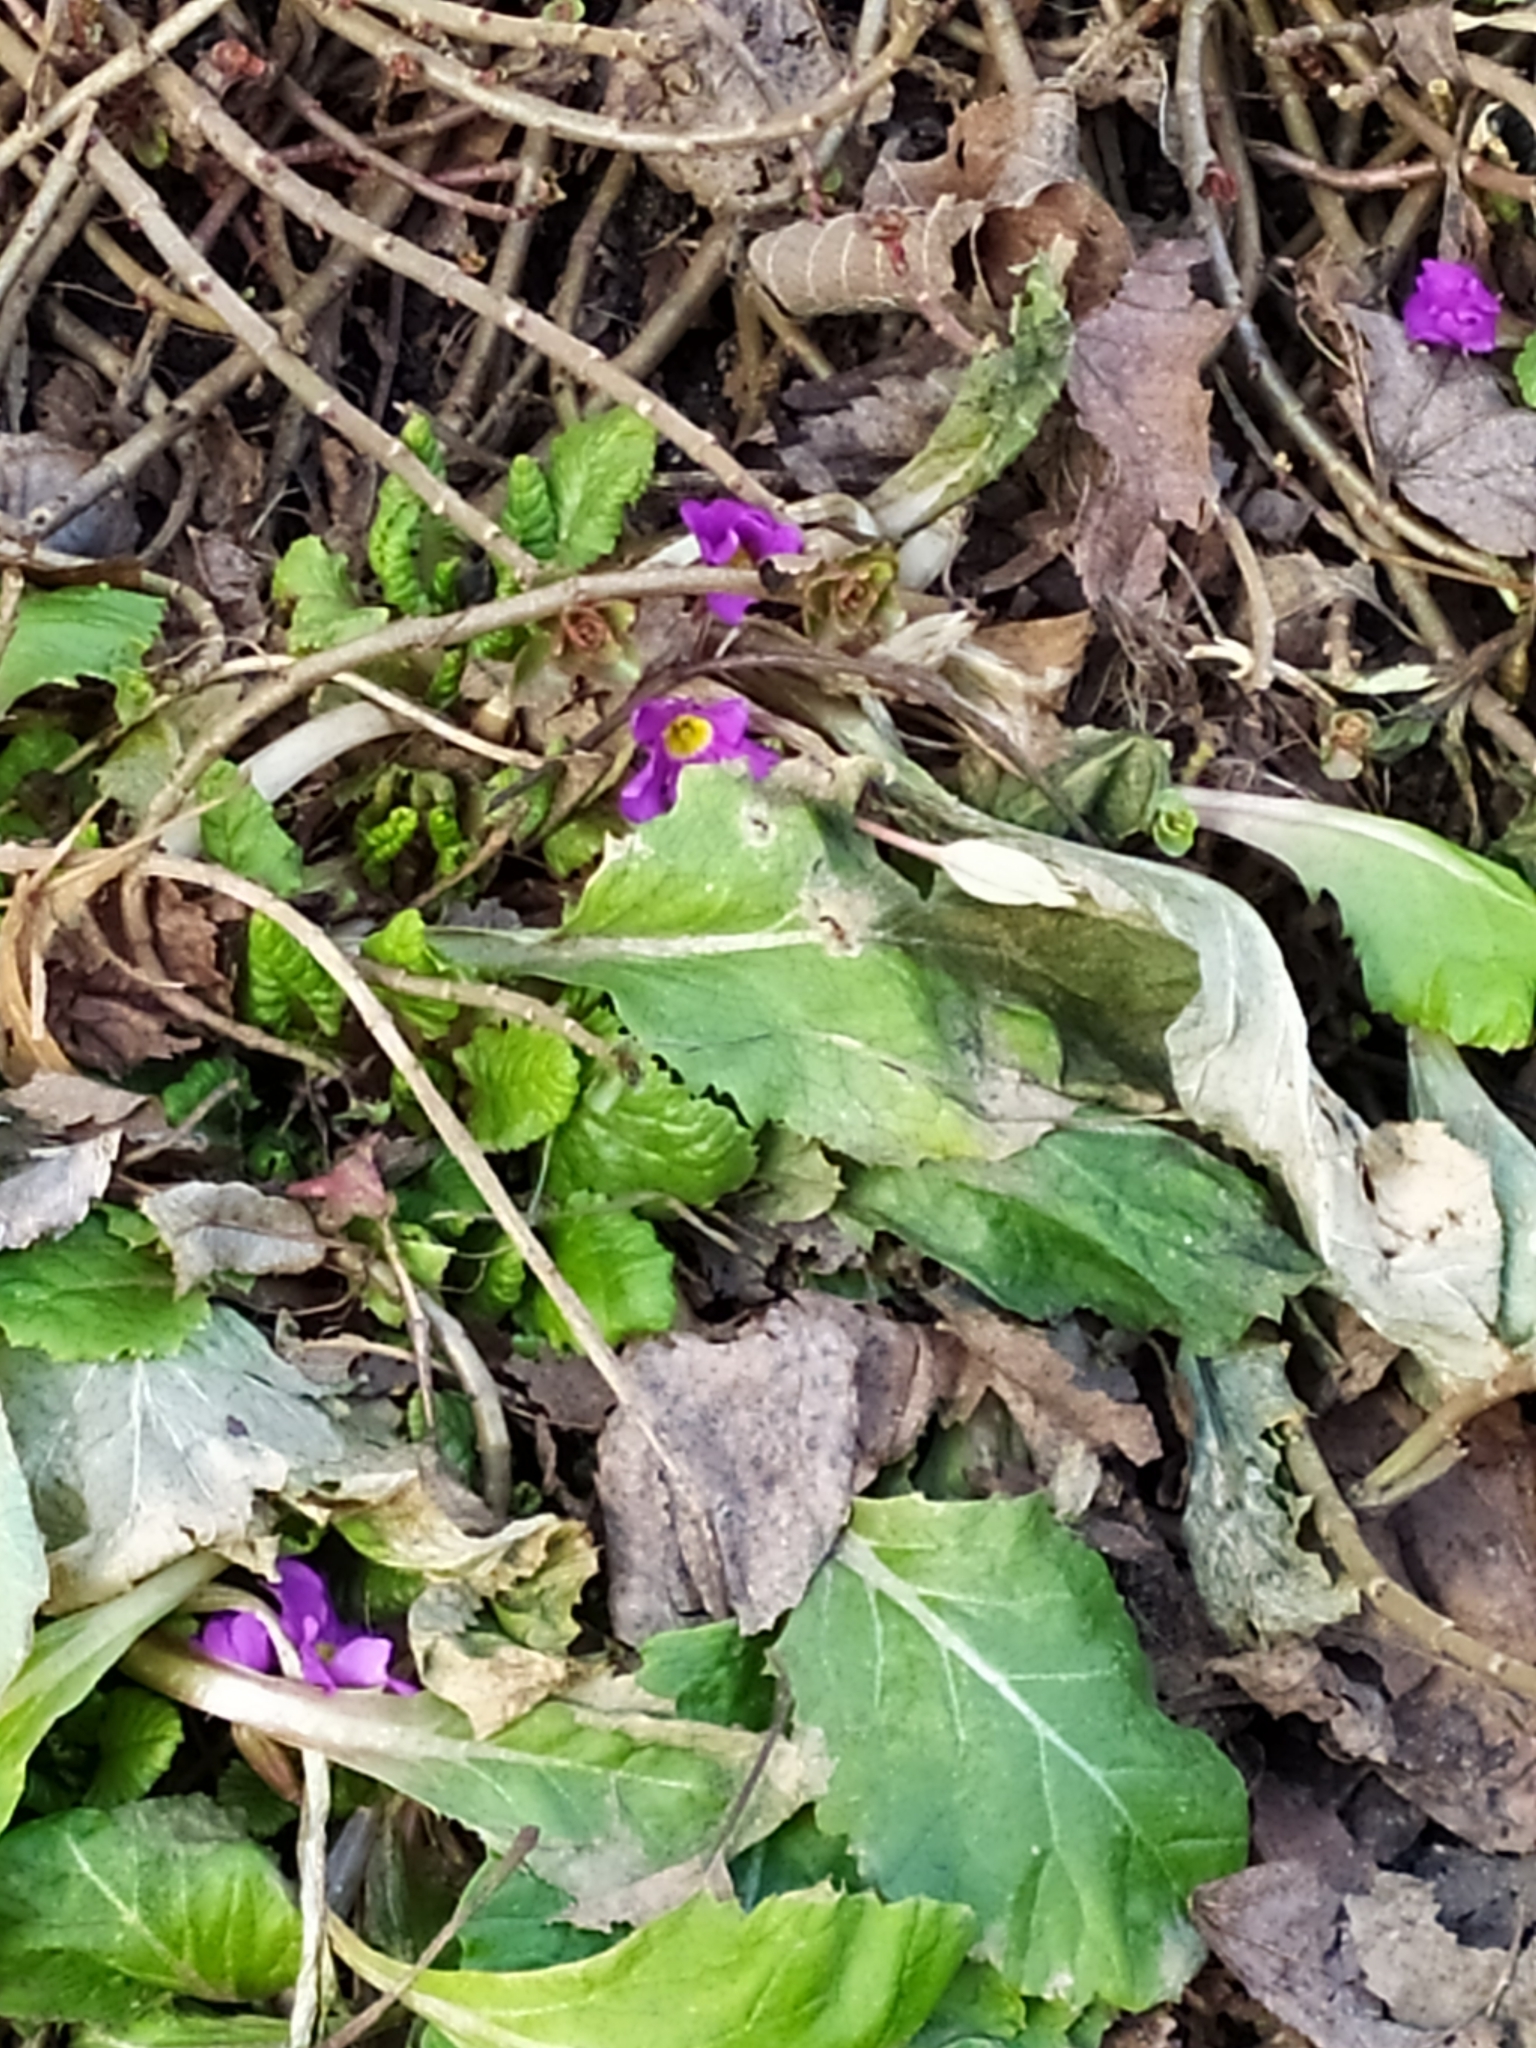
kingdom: Plantae
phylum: Tracheophyta
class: Magnoliopsida
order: Ericales
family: Primulaceae
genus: Primula
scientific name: Primula vulgaris
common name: Primrose
